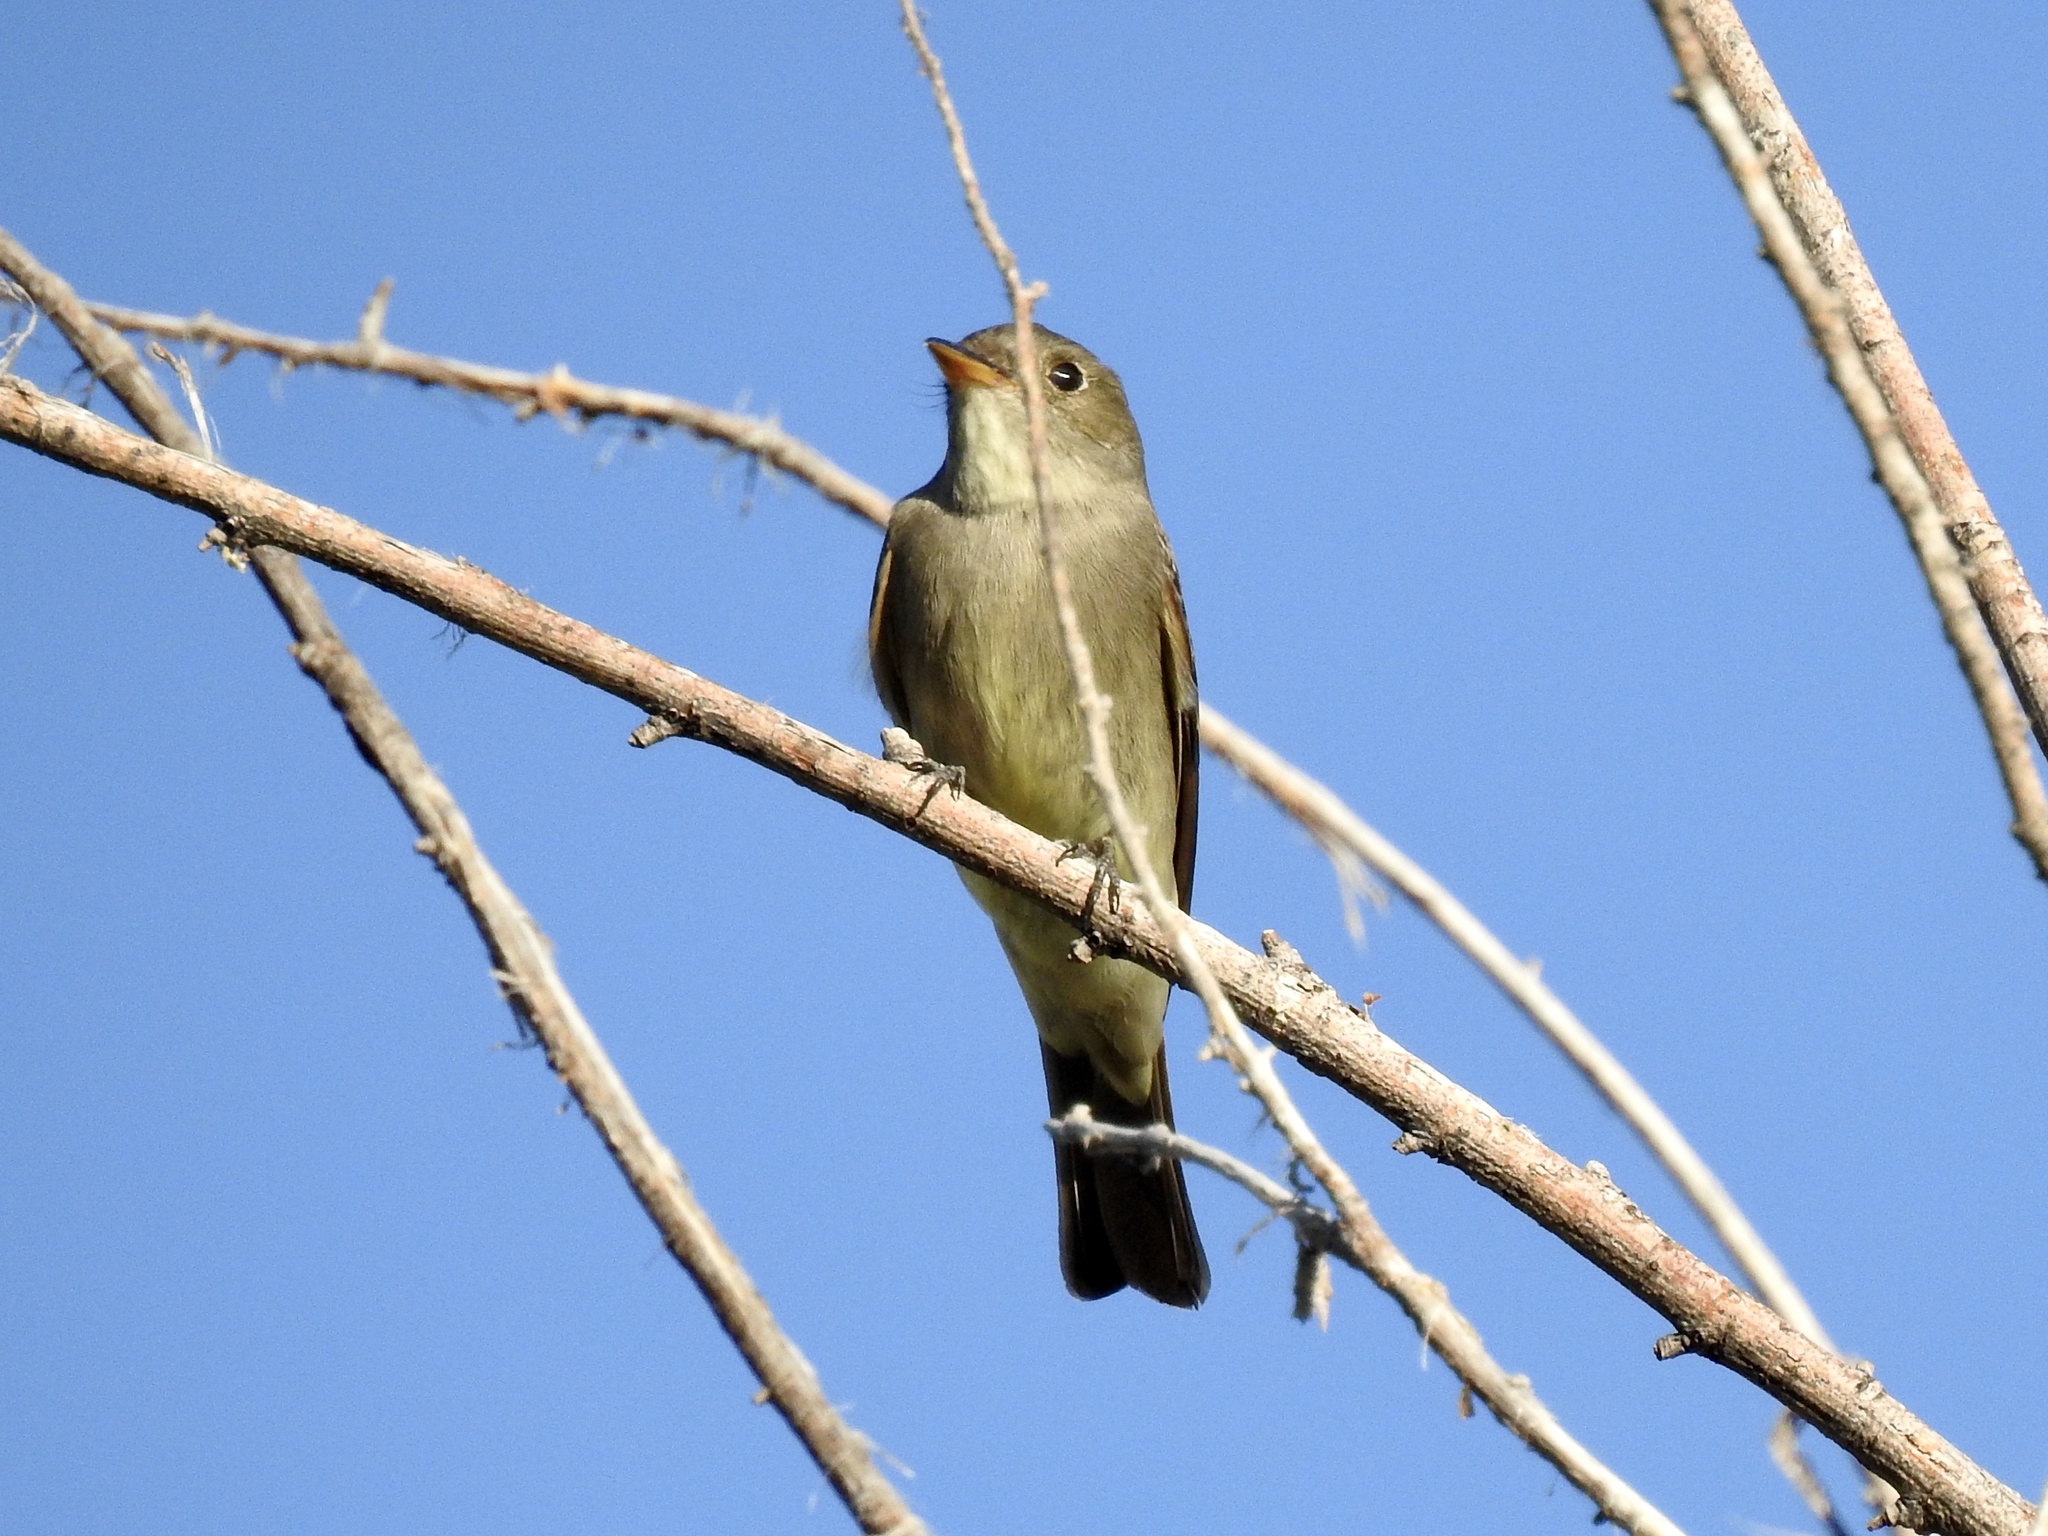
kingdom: Animalia
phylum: Chordata
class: Aves
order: Passeriformes
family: Tyrannidae
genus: Contopus
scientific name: Contopus sordidulus
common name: Western wood-pewee
